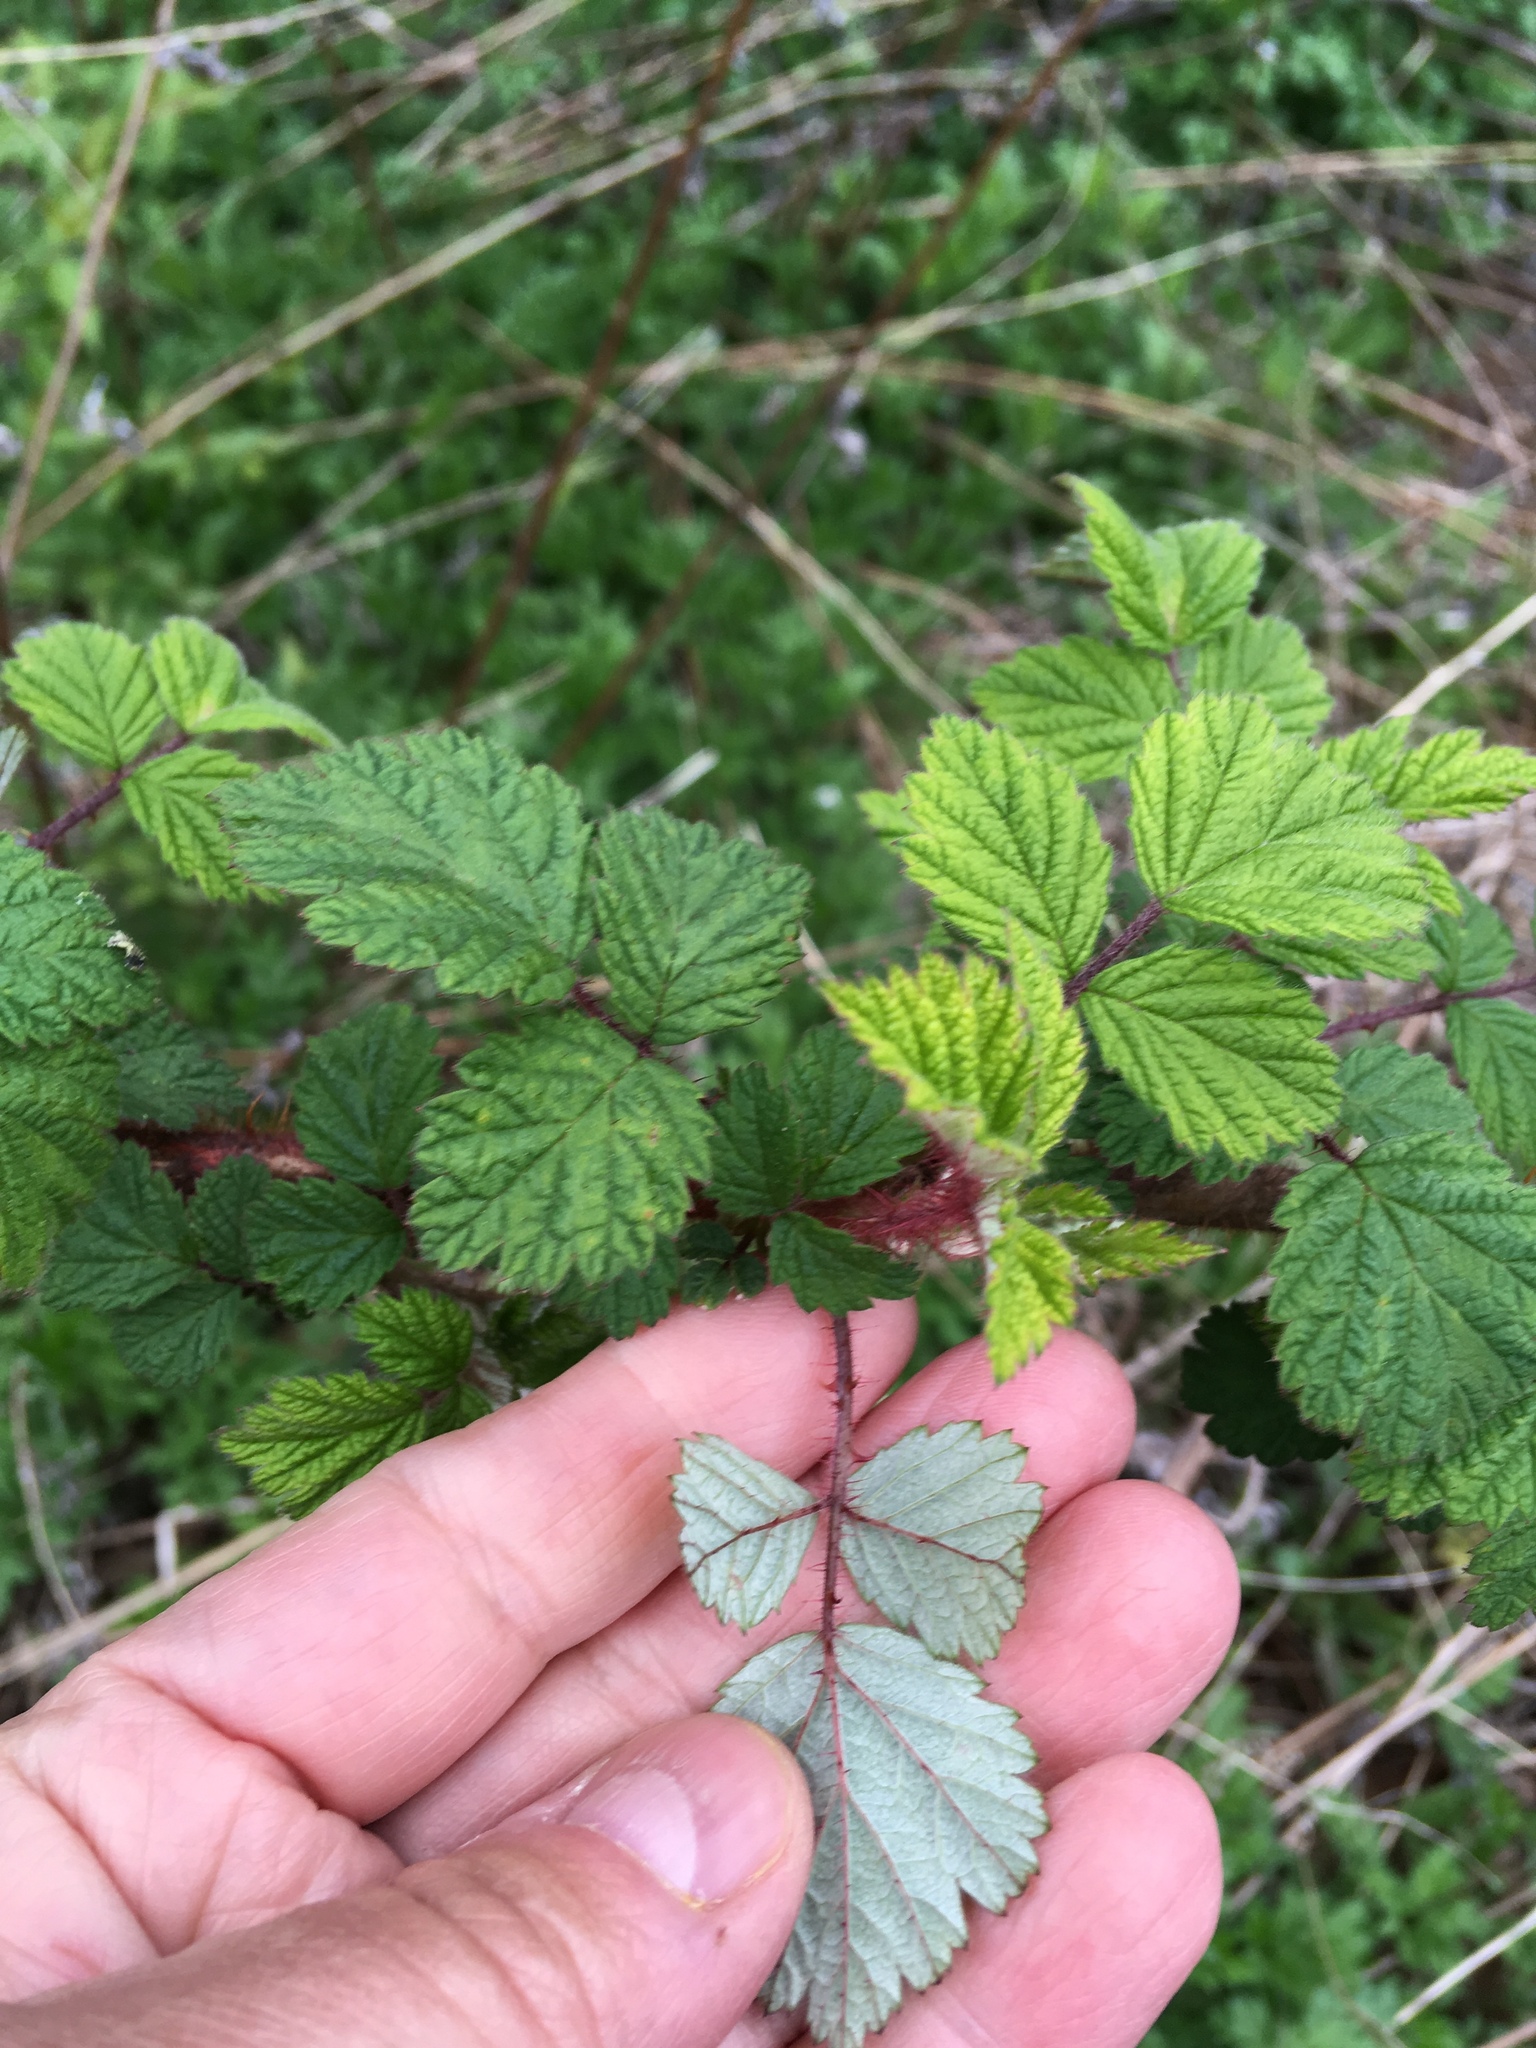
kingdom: Plantae
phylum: Tracheophyta
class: Magnoliopsida
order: Rosales
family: Rosaceae
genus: Rubus
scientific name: Rubus phoenicolasius
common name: Japanese wineberry
